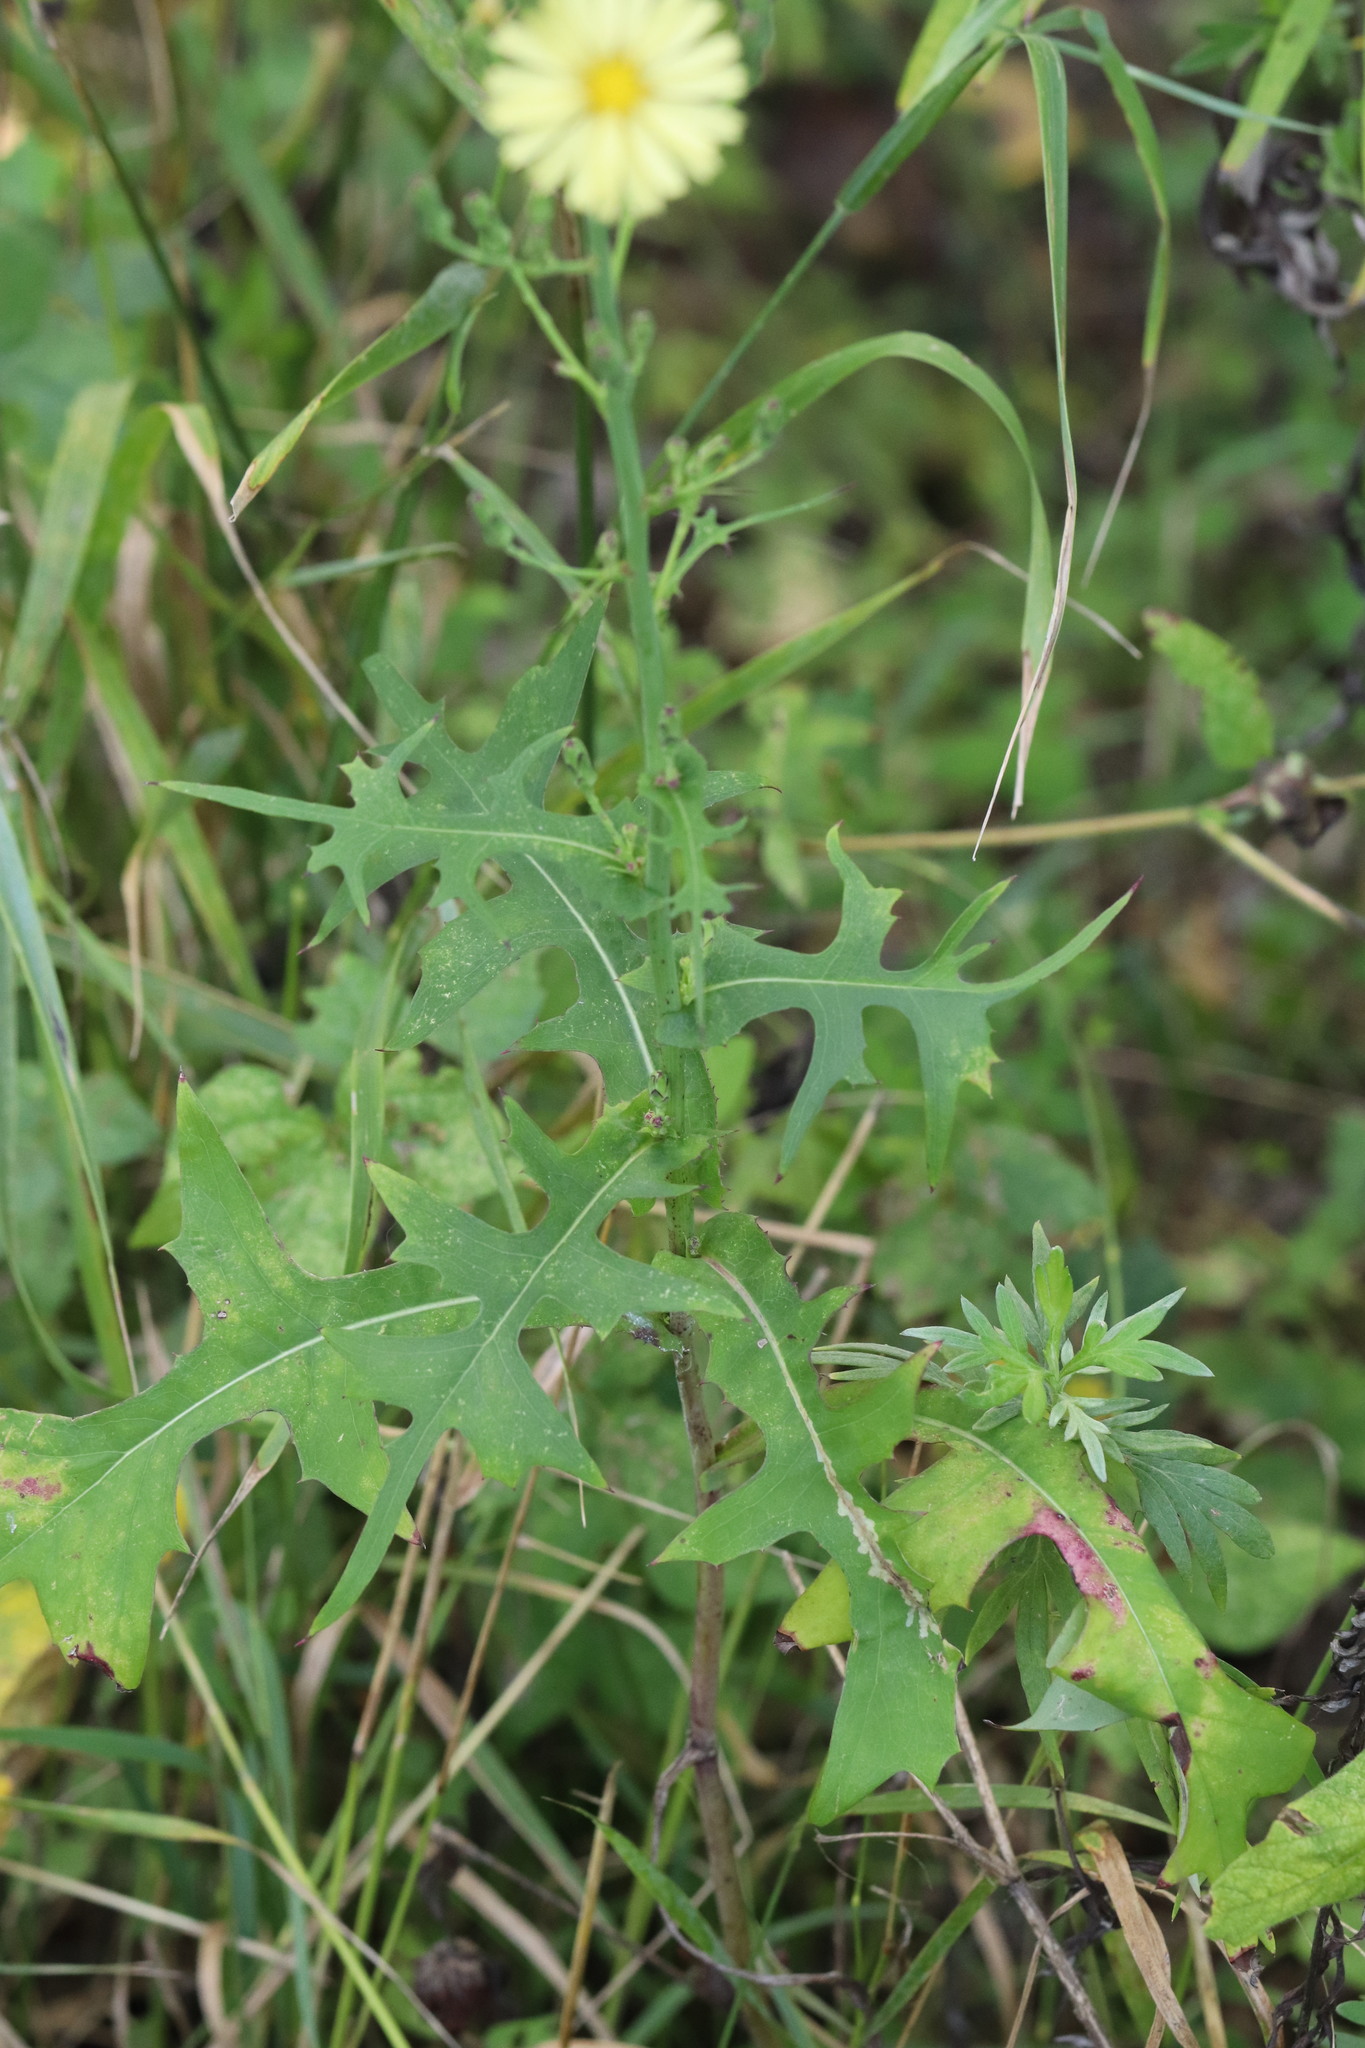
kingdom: Plantae
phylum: Tracheophyta
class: Magnoliopsida
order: Asterales
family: Asteraceae
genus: Lactuca
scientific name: Lactuca indica
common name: Wild lettuce
